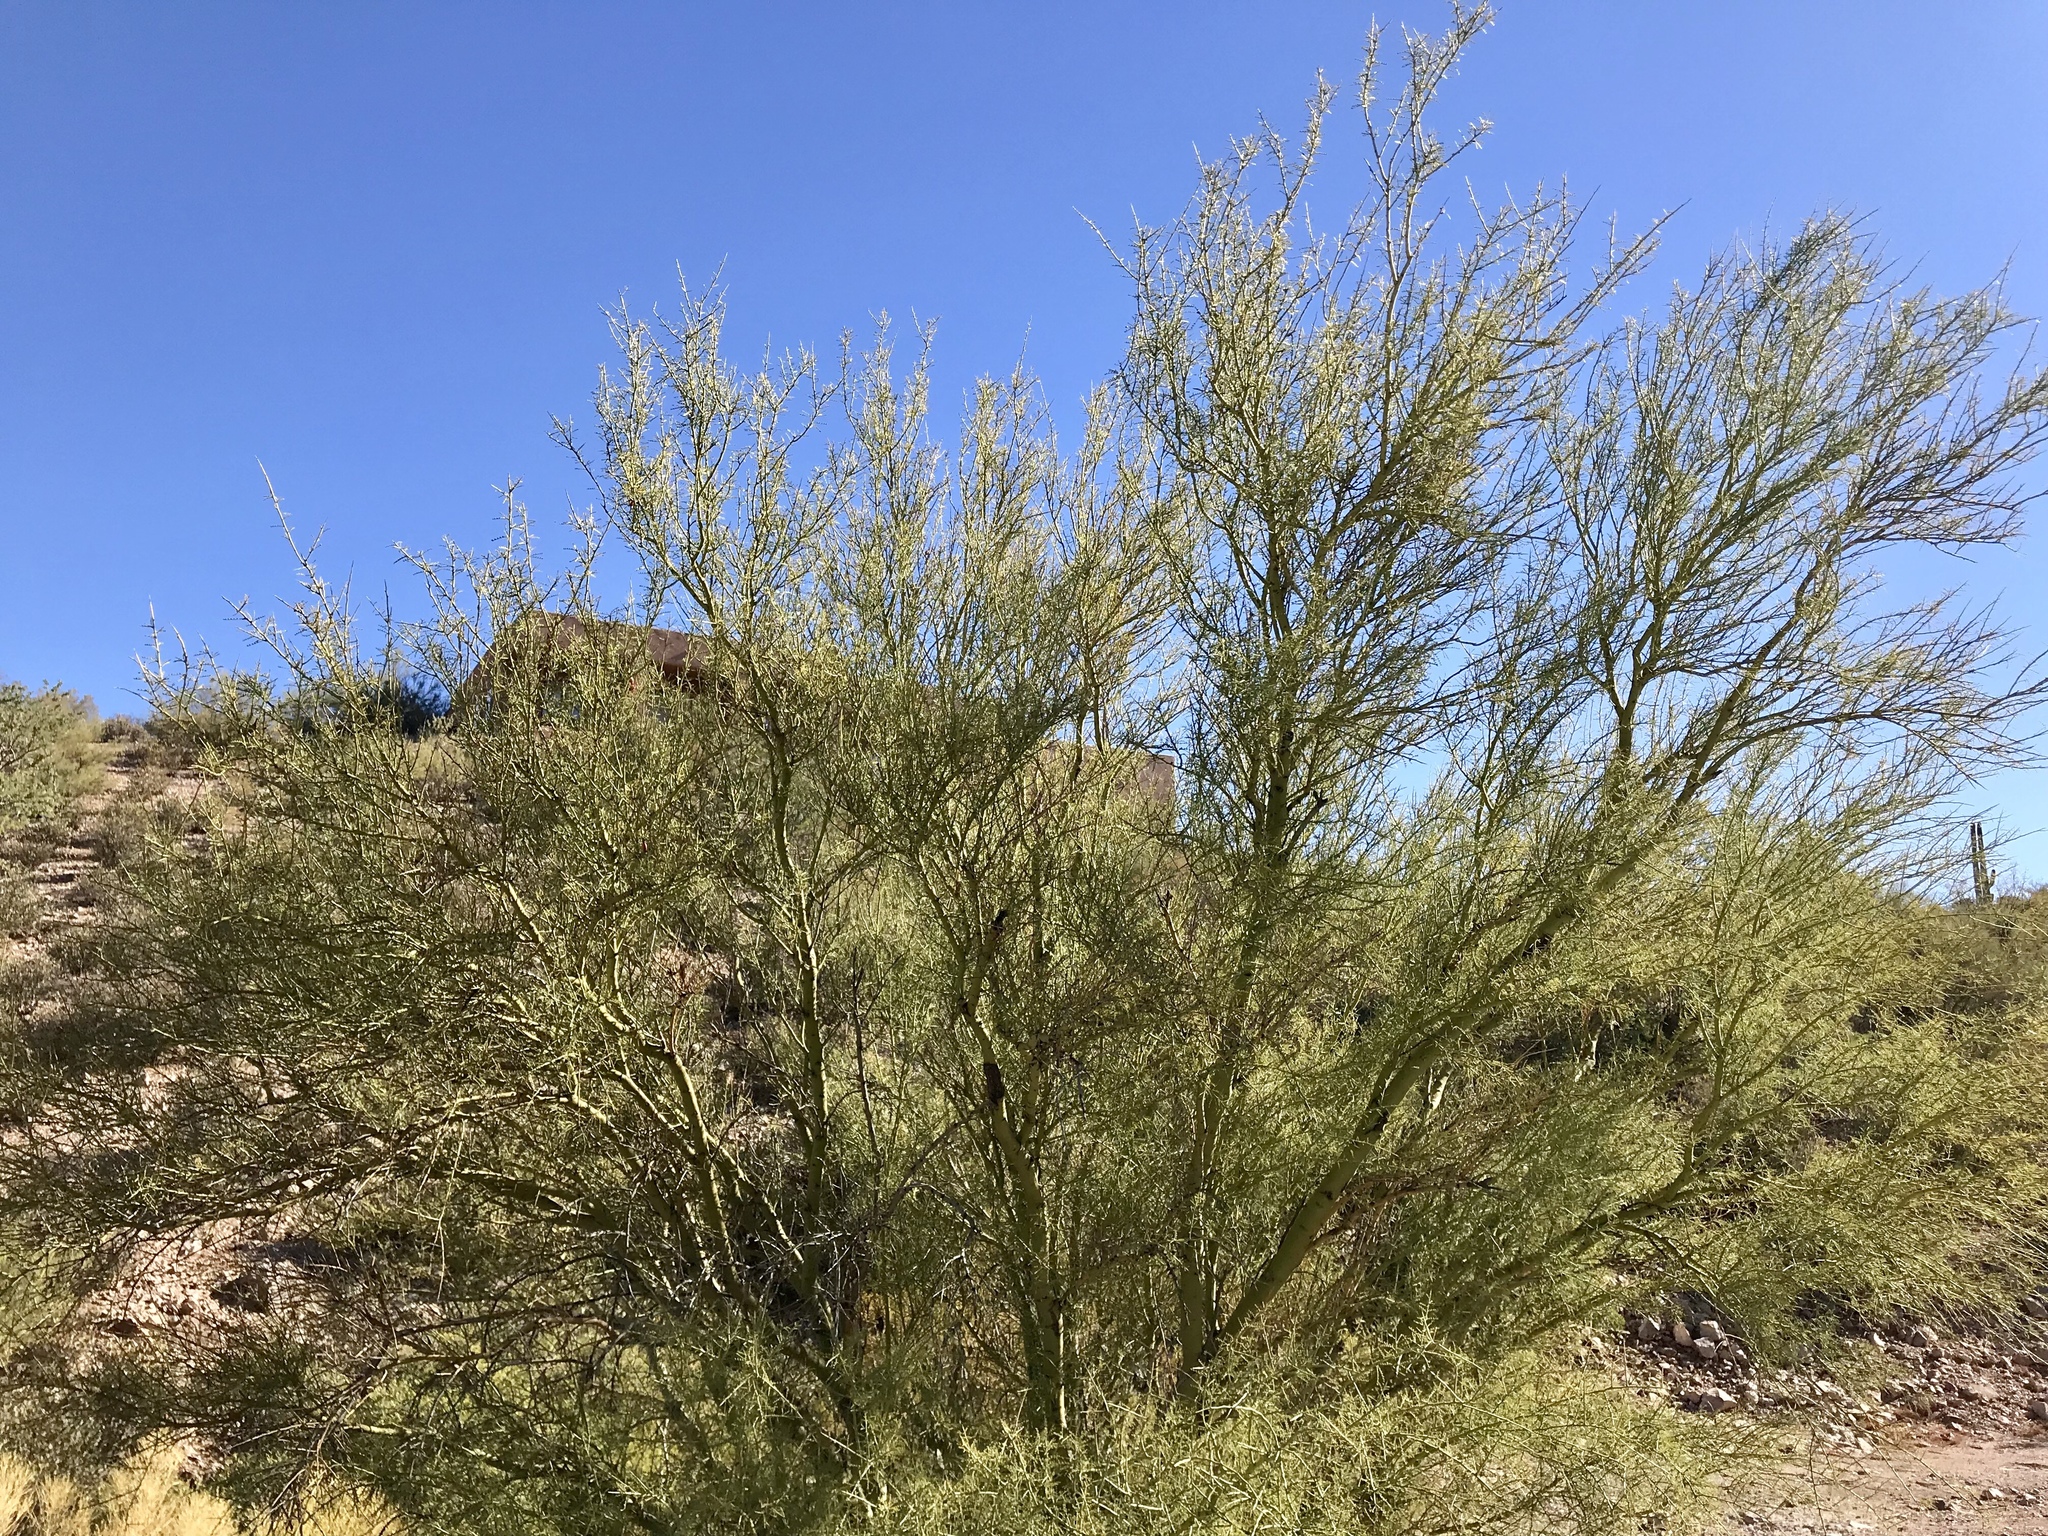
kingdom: Plantae
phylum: Tracheophyta
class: Magnoliopsida
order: Fabales
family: Fabaceae
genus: Parkinsonia
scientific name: Parkinsonia microphylla
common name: Yellow paloverde
